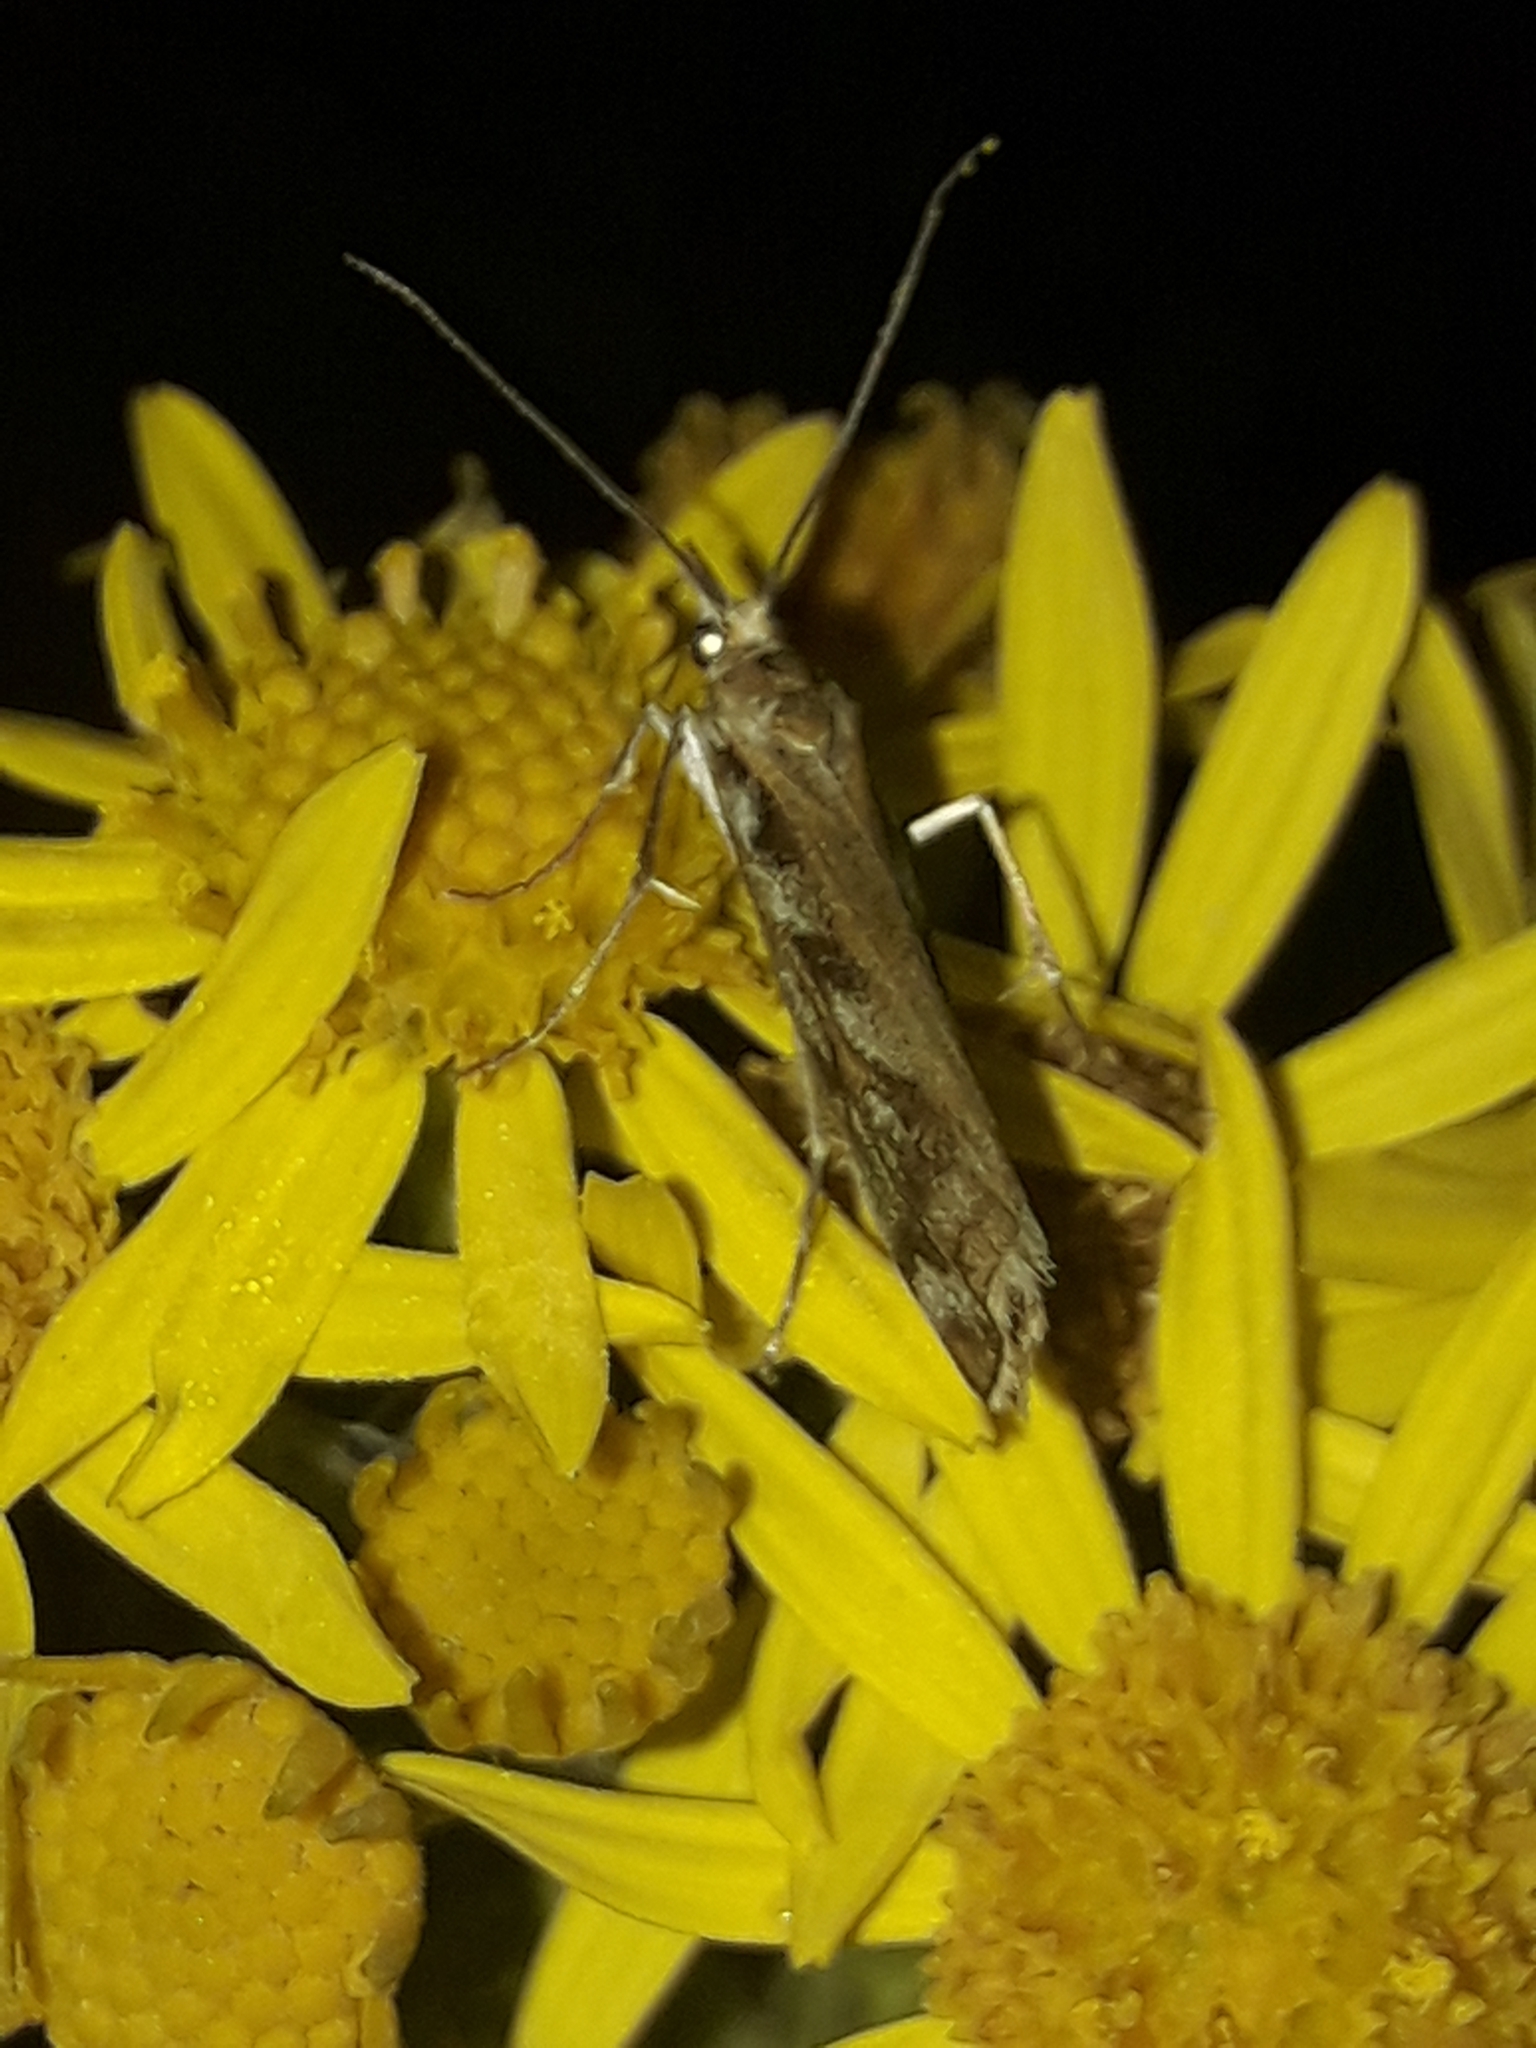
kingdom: Animalia
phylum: Arthropoda
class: Insecta
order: Lepidoptera
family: Crambidae
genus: Orocrambus
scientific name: Orocrambus xanthogrammus
